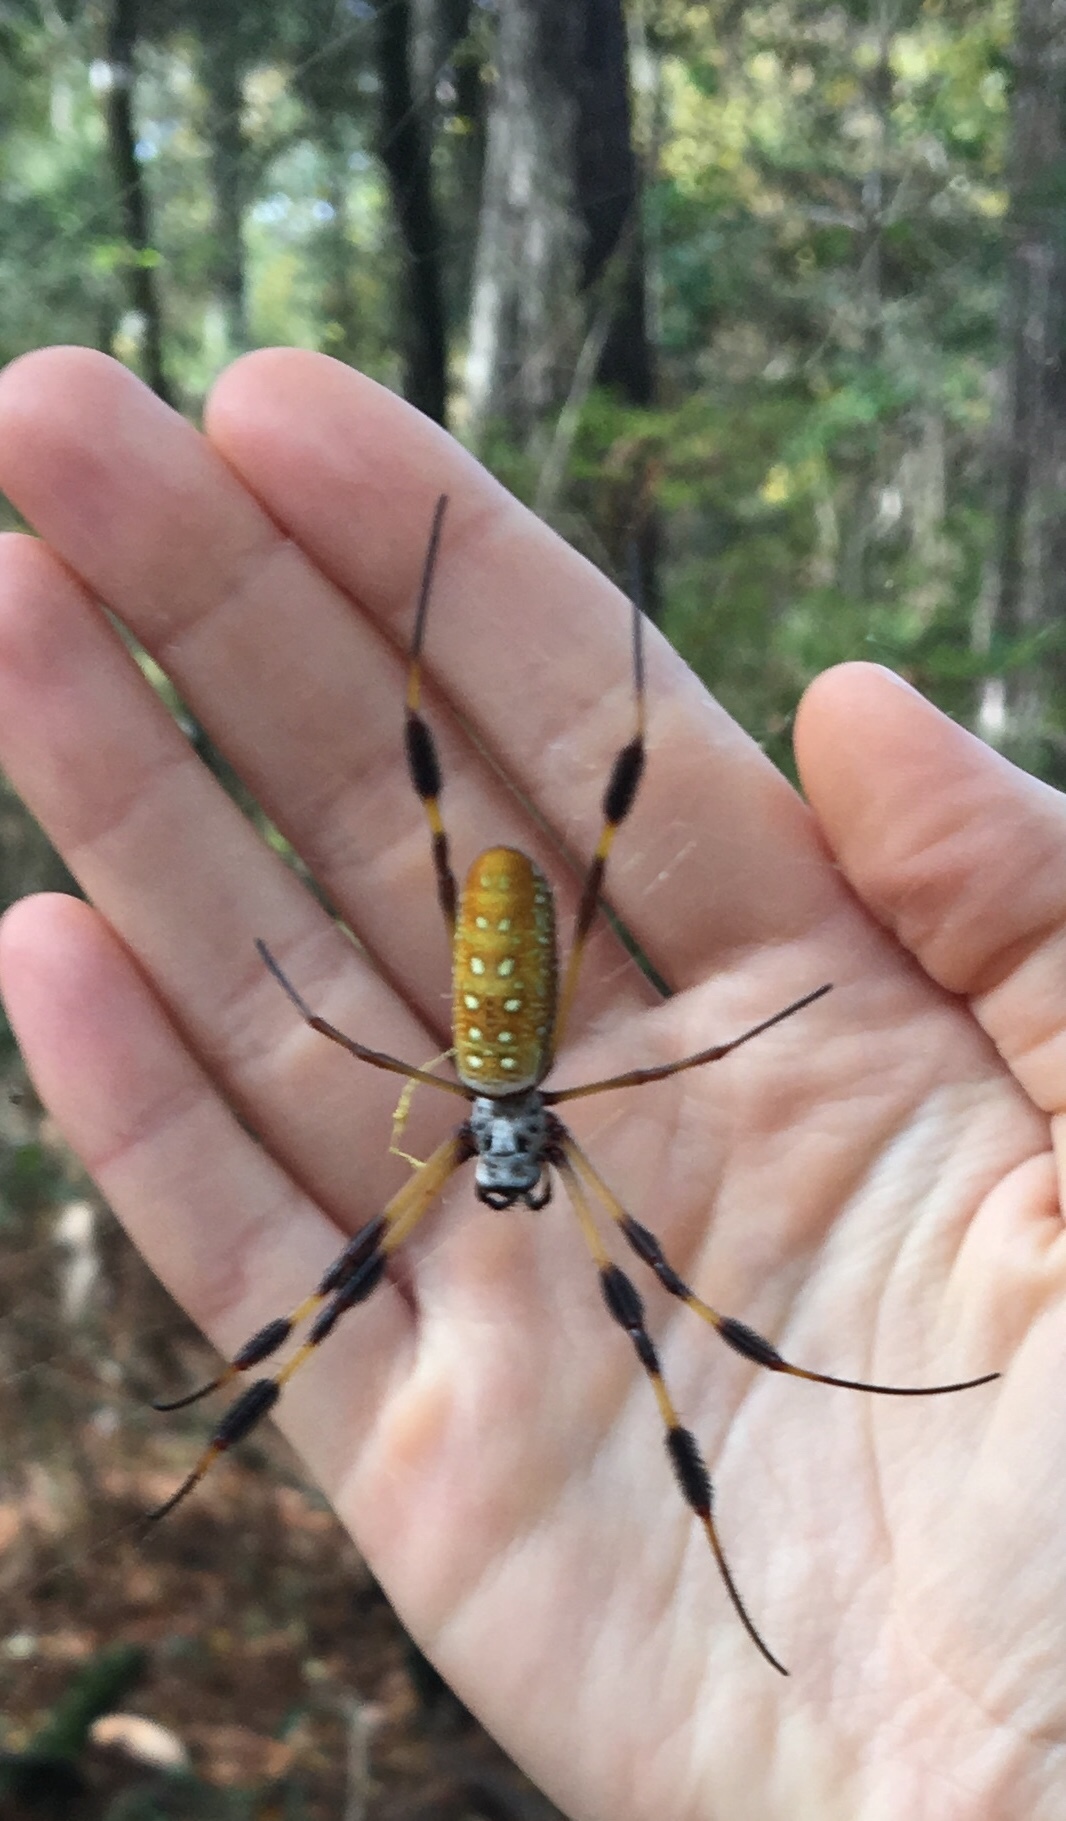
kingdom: Animalia
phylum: Arthropoda
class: Arachnida
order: Araneae
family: Araneidae
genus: Trichonephila
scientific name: Trichonephila clavipes
